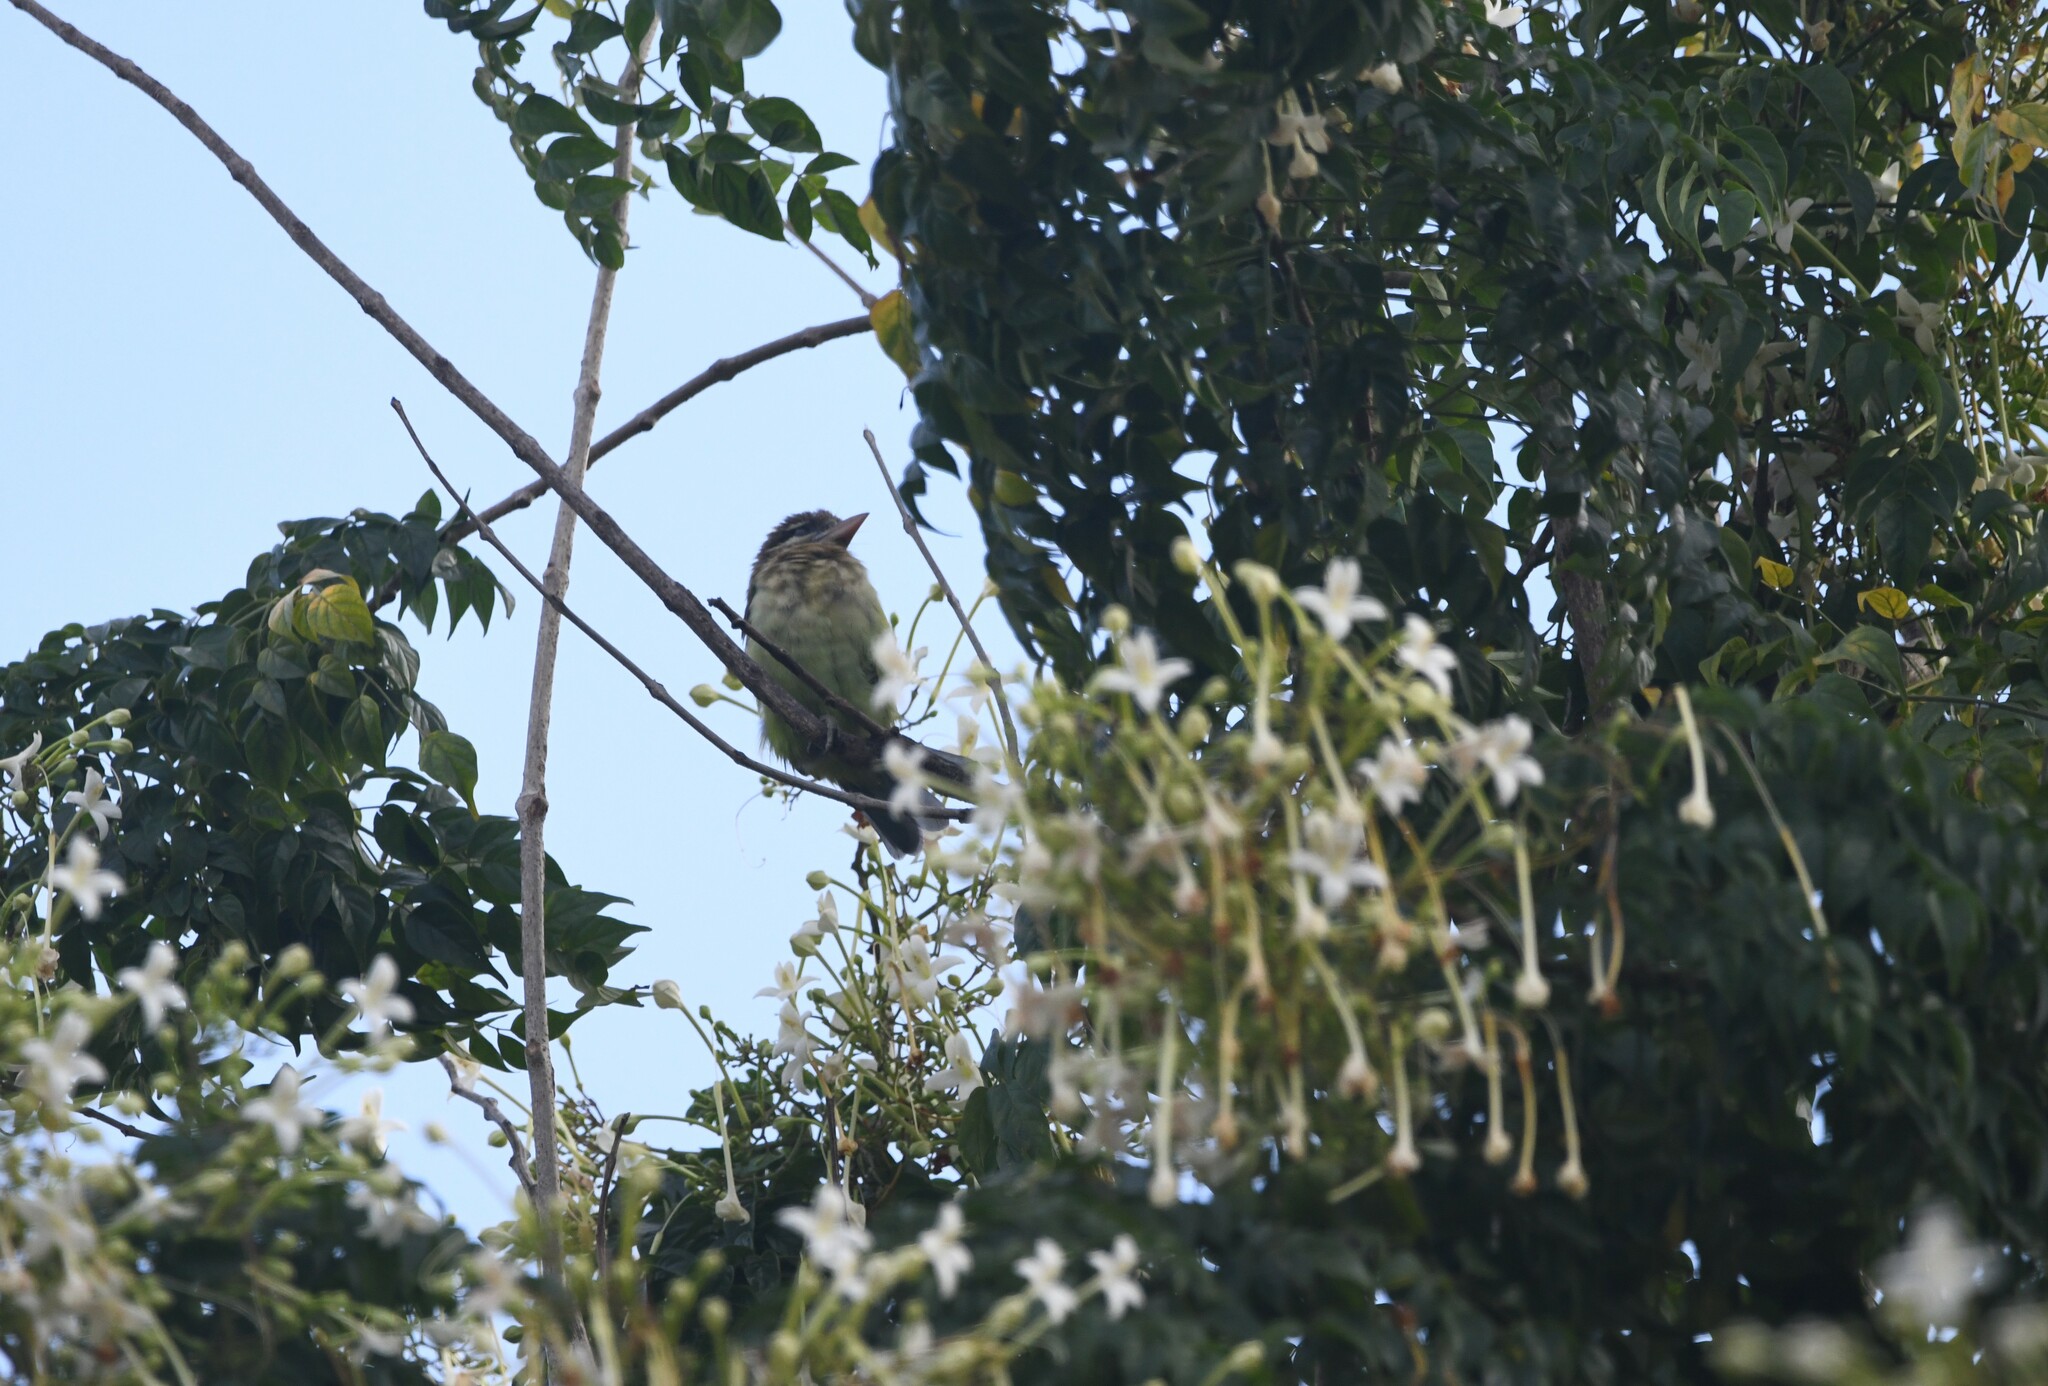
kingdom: Animalia
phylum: Chordata
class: Aves
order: Piciformes
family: Megalaimidae
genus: Psilopogon
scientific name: Psilopogon viridis
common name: White-cheeked barbet
